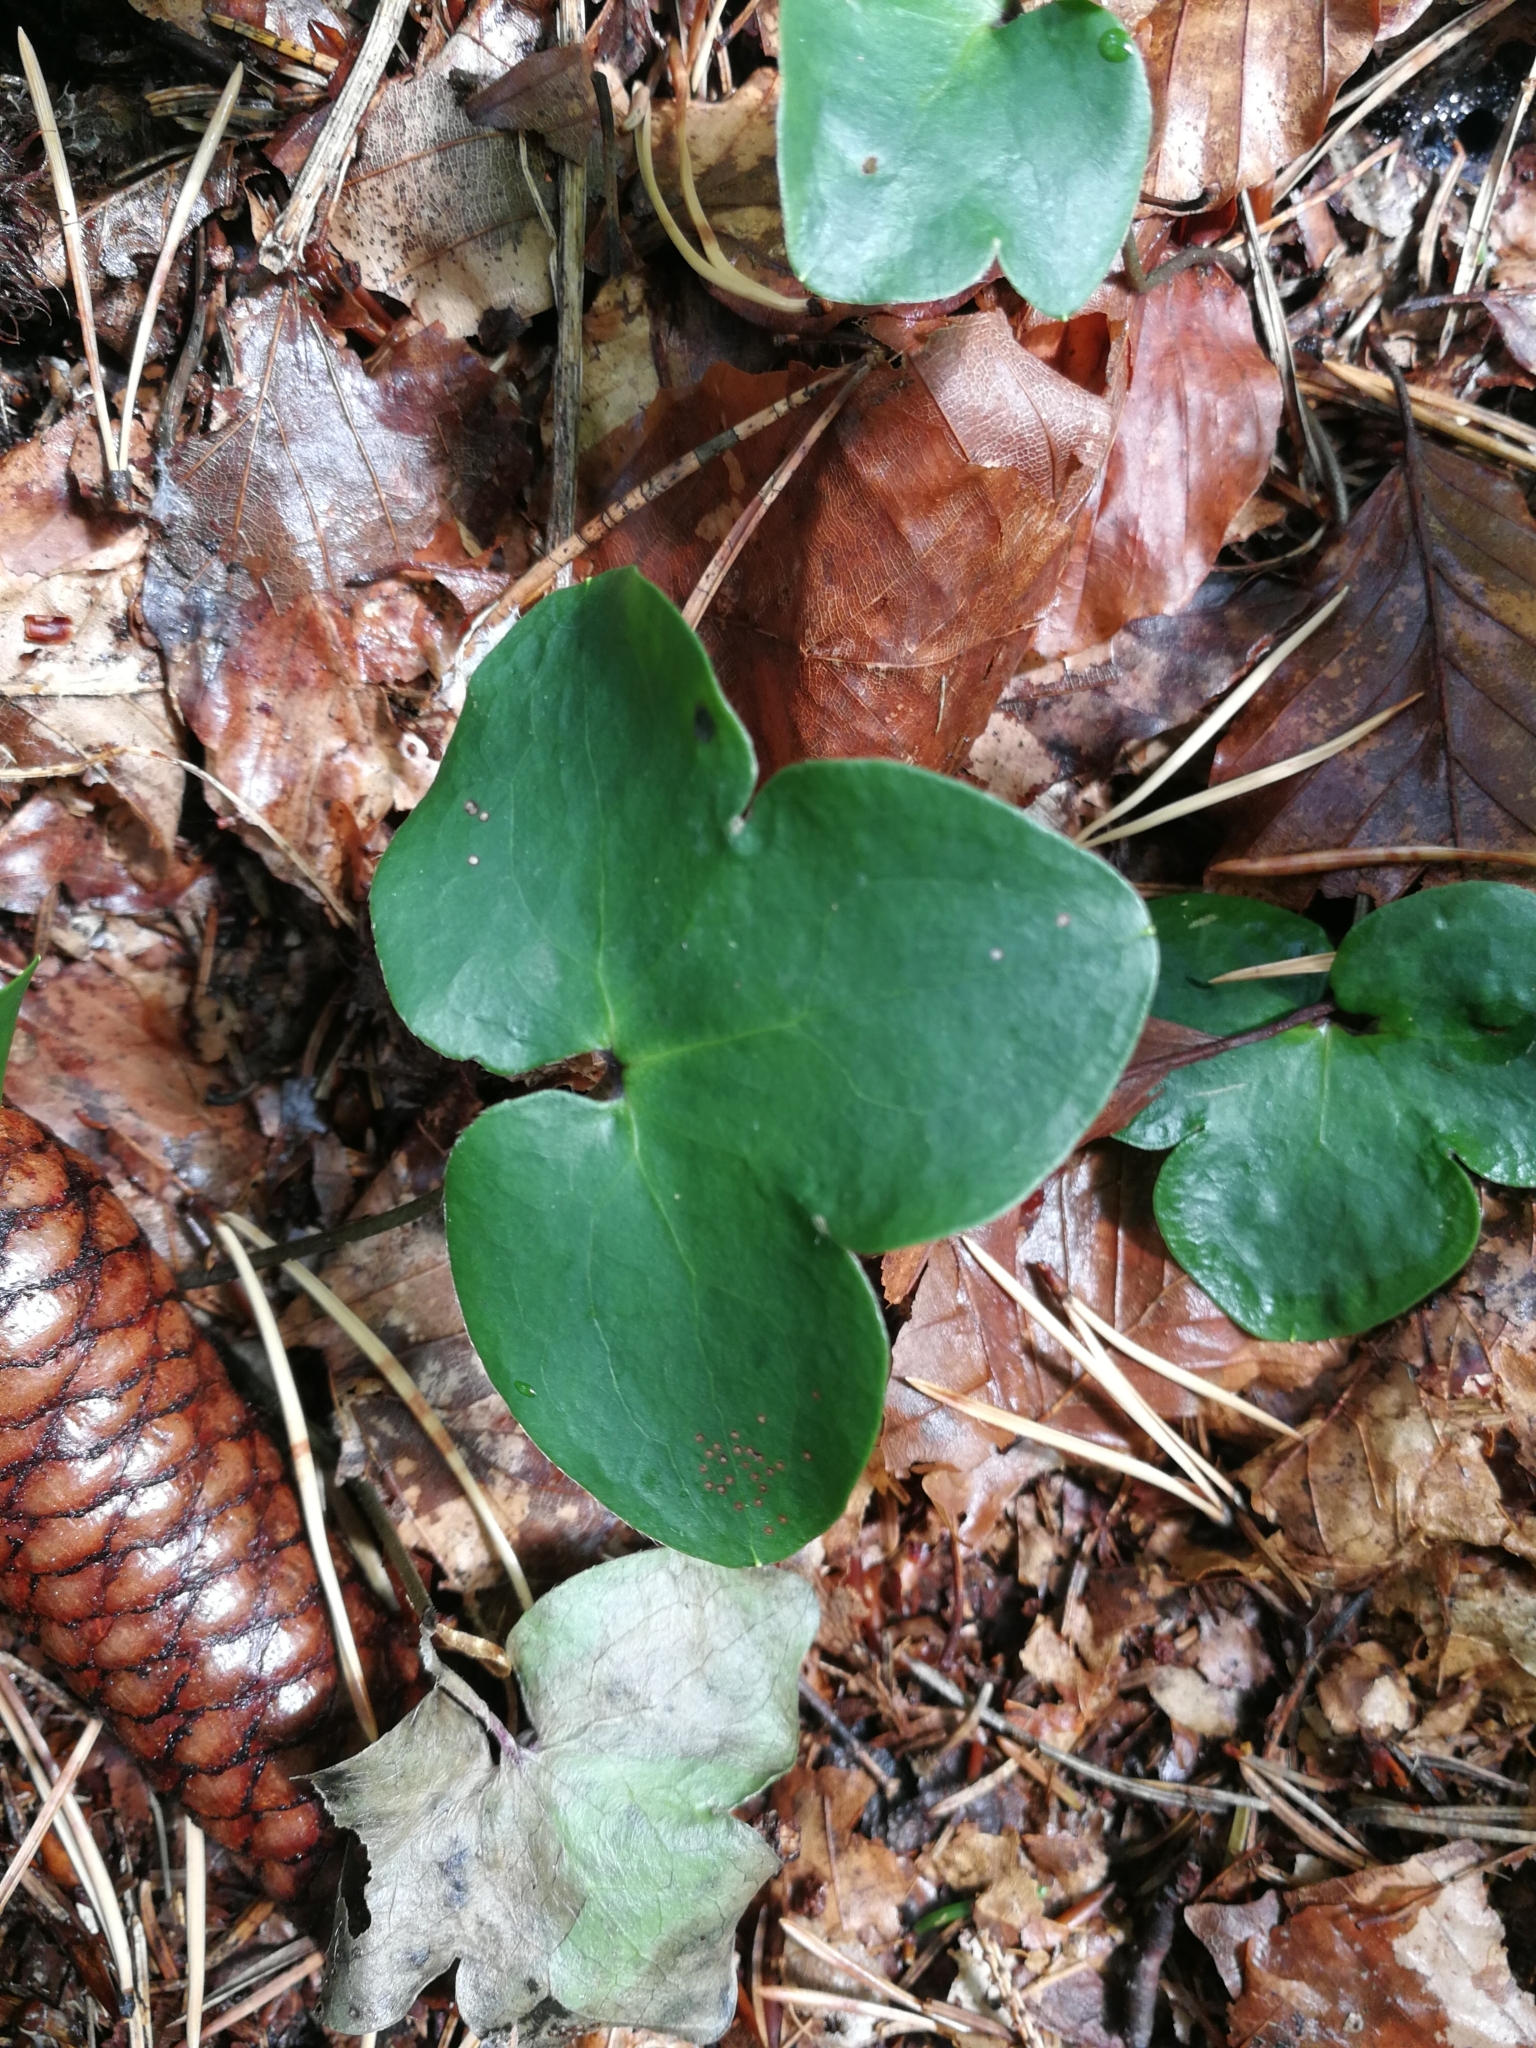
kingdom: Plantae
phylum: Tracheophyta
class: Magnoliopsida
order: Ranunculales
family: Ranunculaceae
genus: Hepatica
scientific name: Hepatica nobilis
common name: Liverleaf
